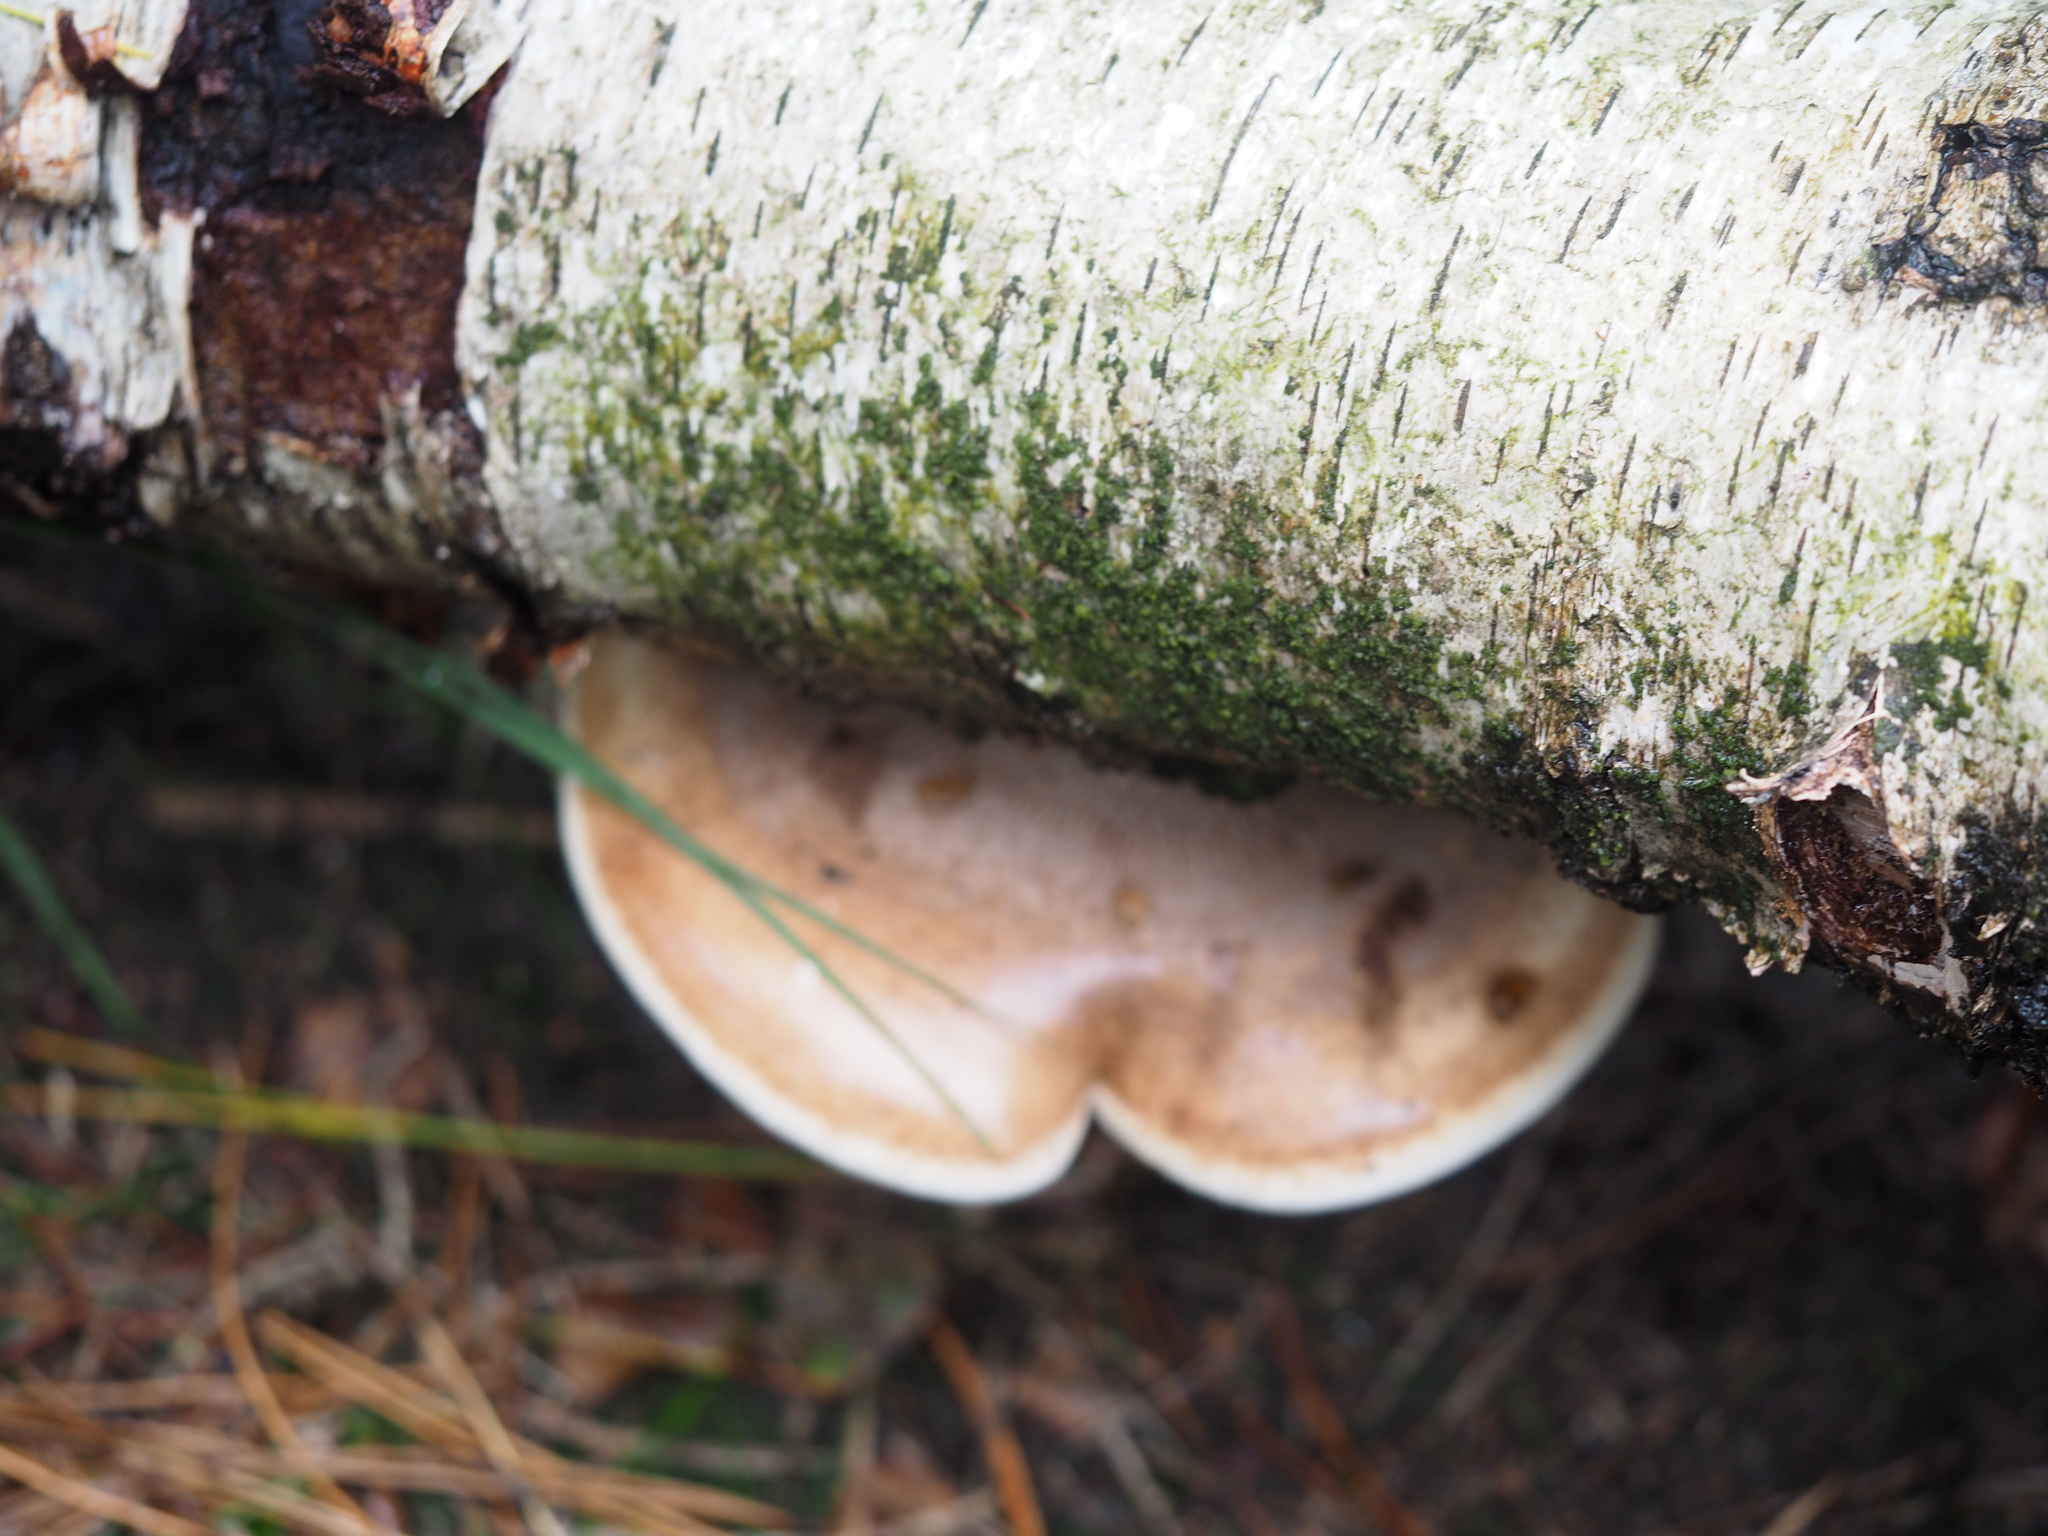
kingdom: Fungi
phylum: Basidiomycota
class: Agaricomycetes
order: Polyporales
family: Fomitopsidaceae
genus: Fomitopsis
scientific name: Fomitopsis betulina
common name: Birch polypore
